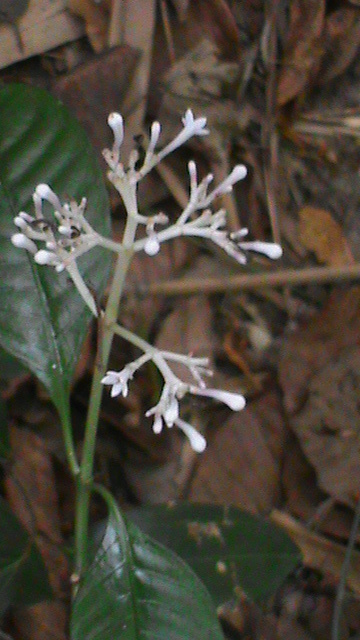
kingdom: Plantae
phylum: Tracheophyta
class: Magnoliopsida
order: Gentianales
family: Rubiaceae
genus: Chassalia
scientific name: Chassalia curviflora
